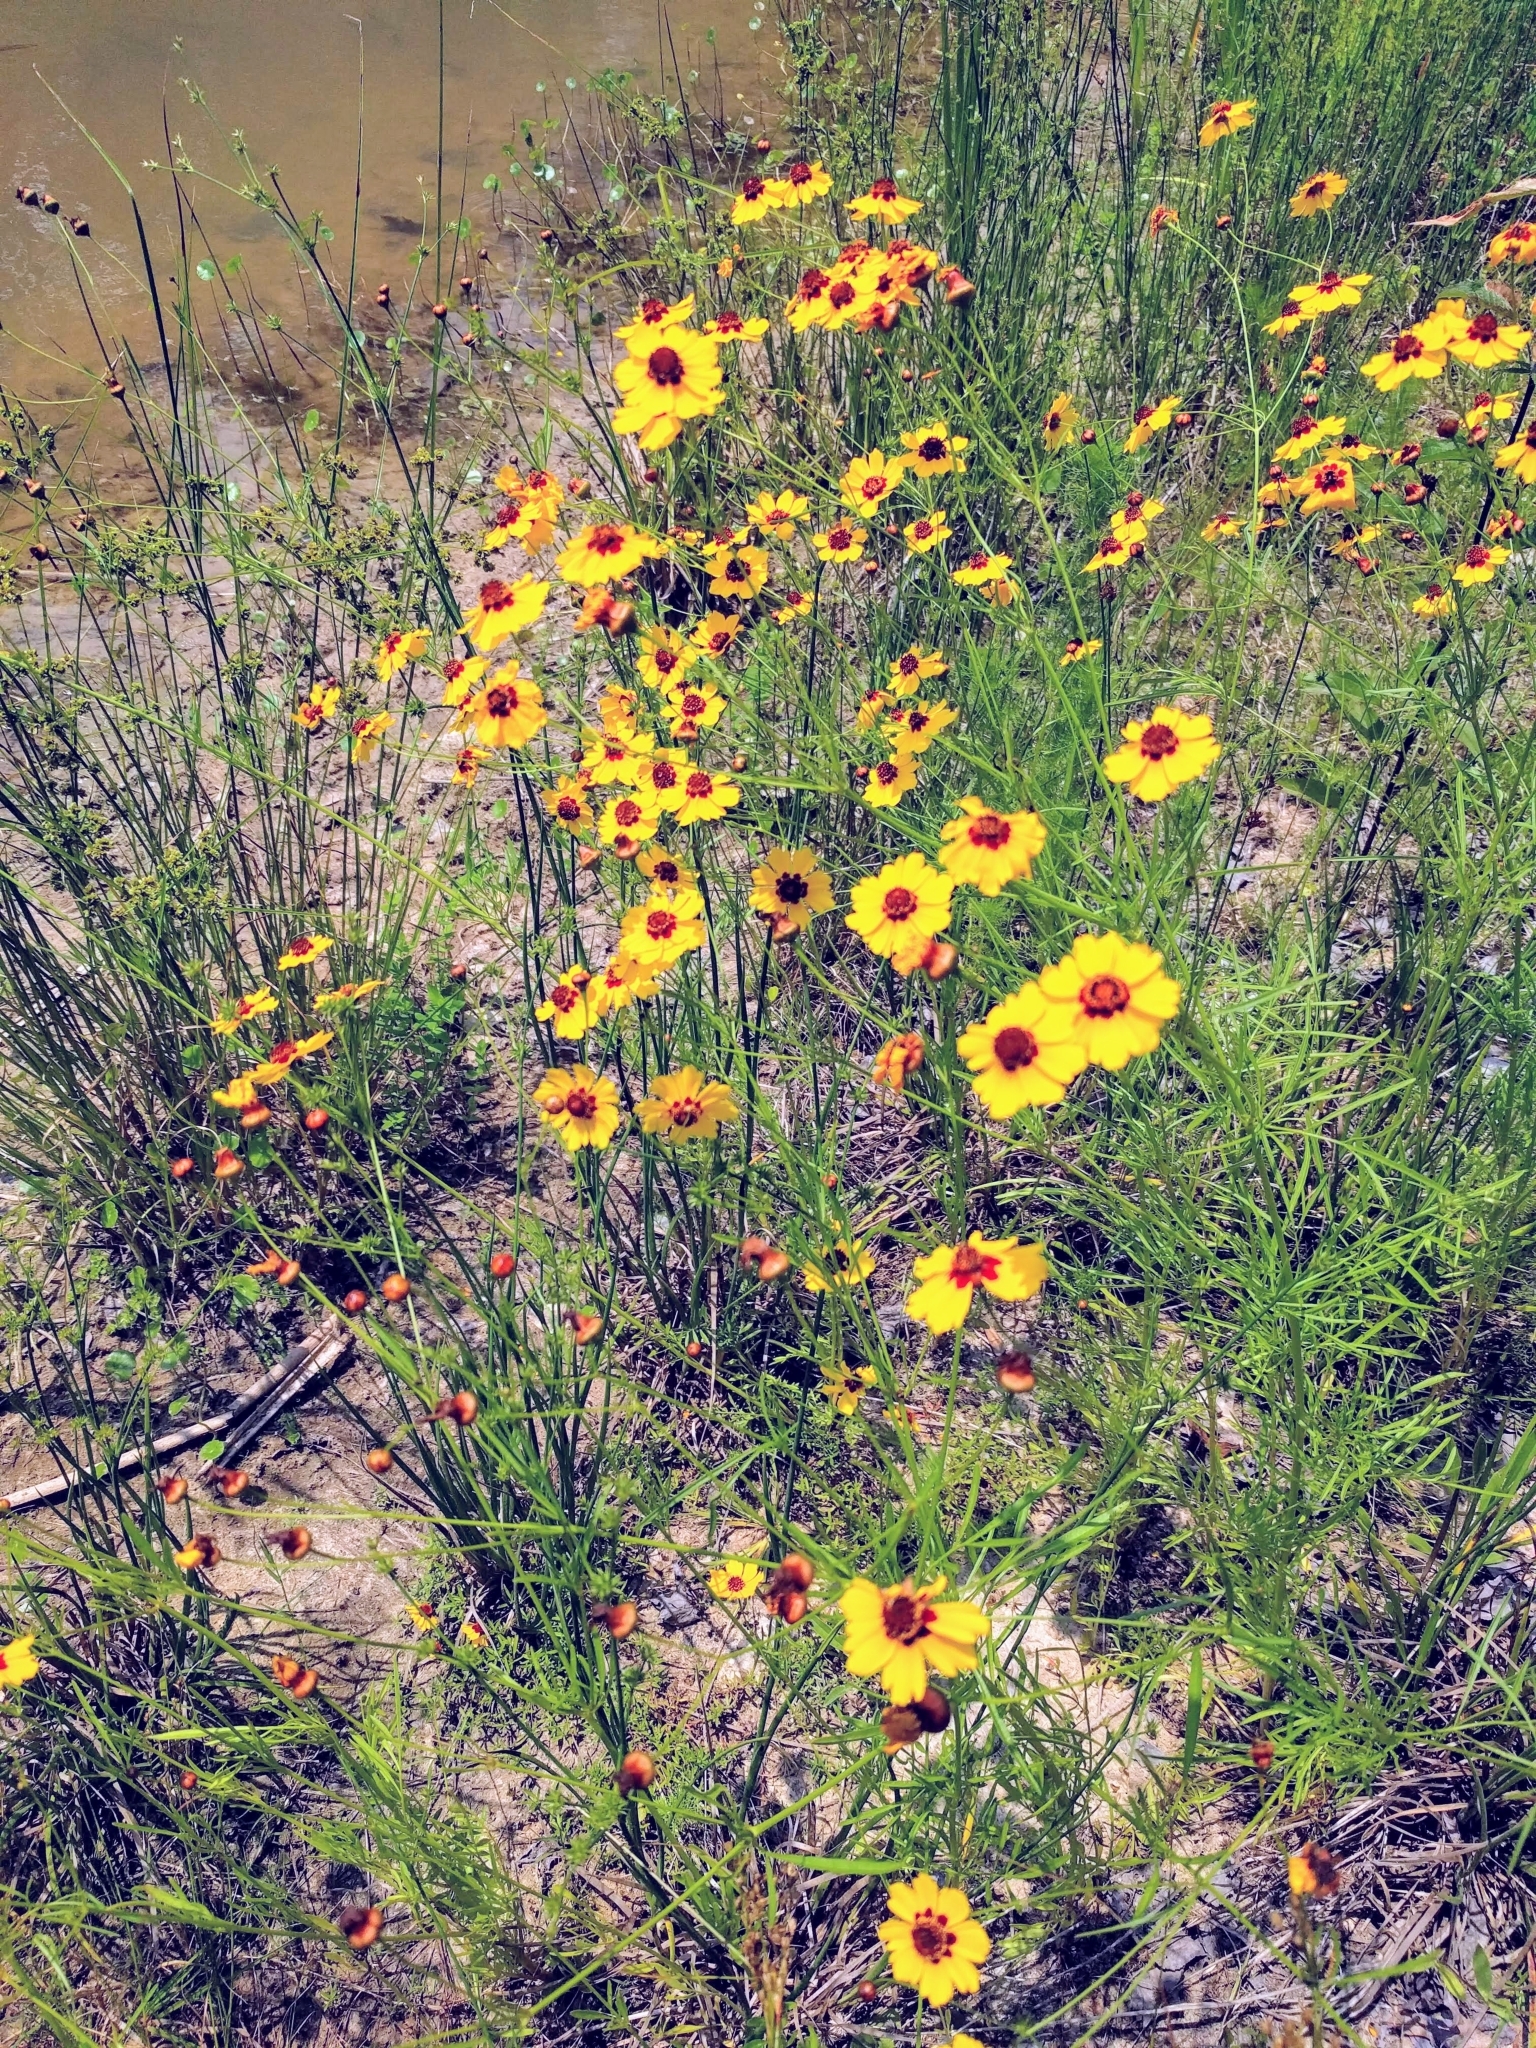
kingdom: Plantae
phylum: Tracheophyta
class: Magnoliopsida
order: Asterales
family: Asteraceae
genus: Coreopsis
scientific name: Coreopsis tinctoria
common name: Garden tickseed
